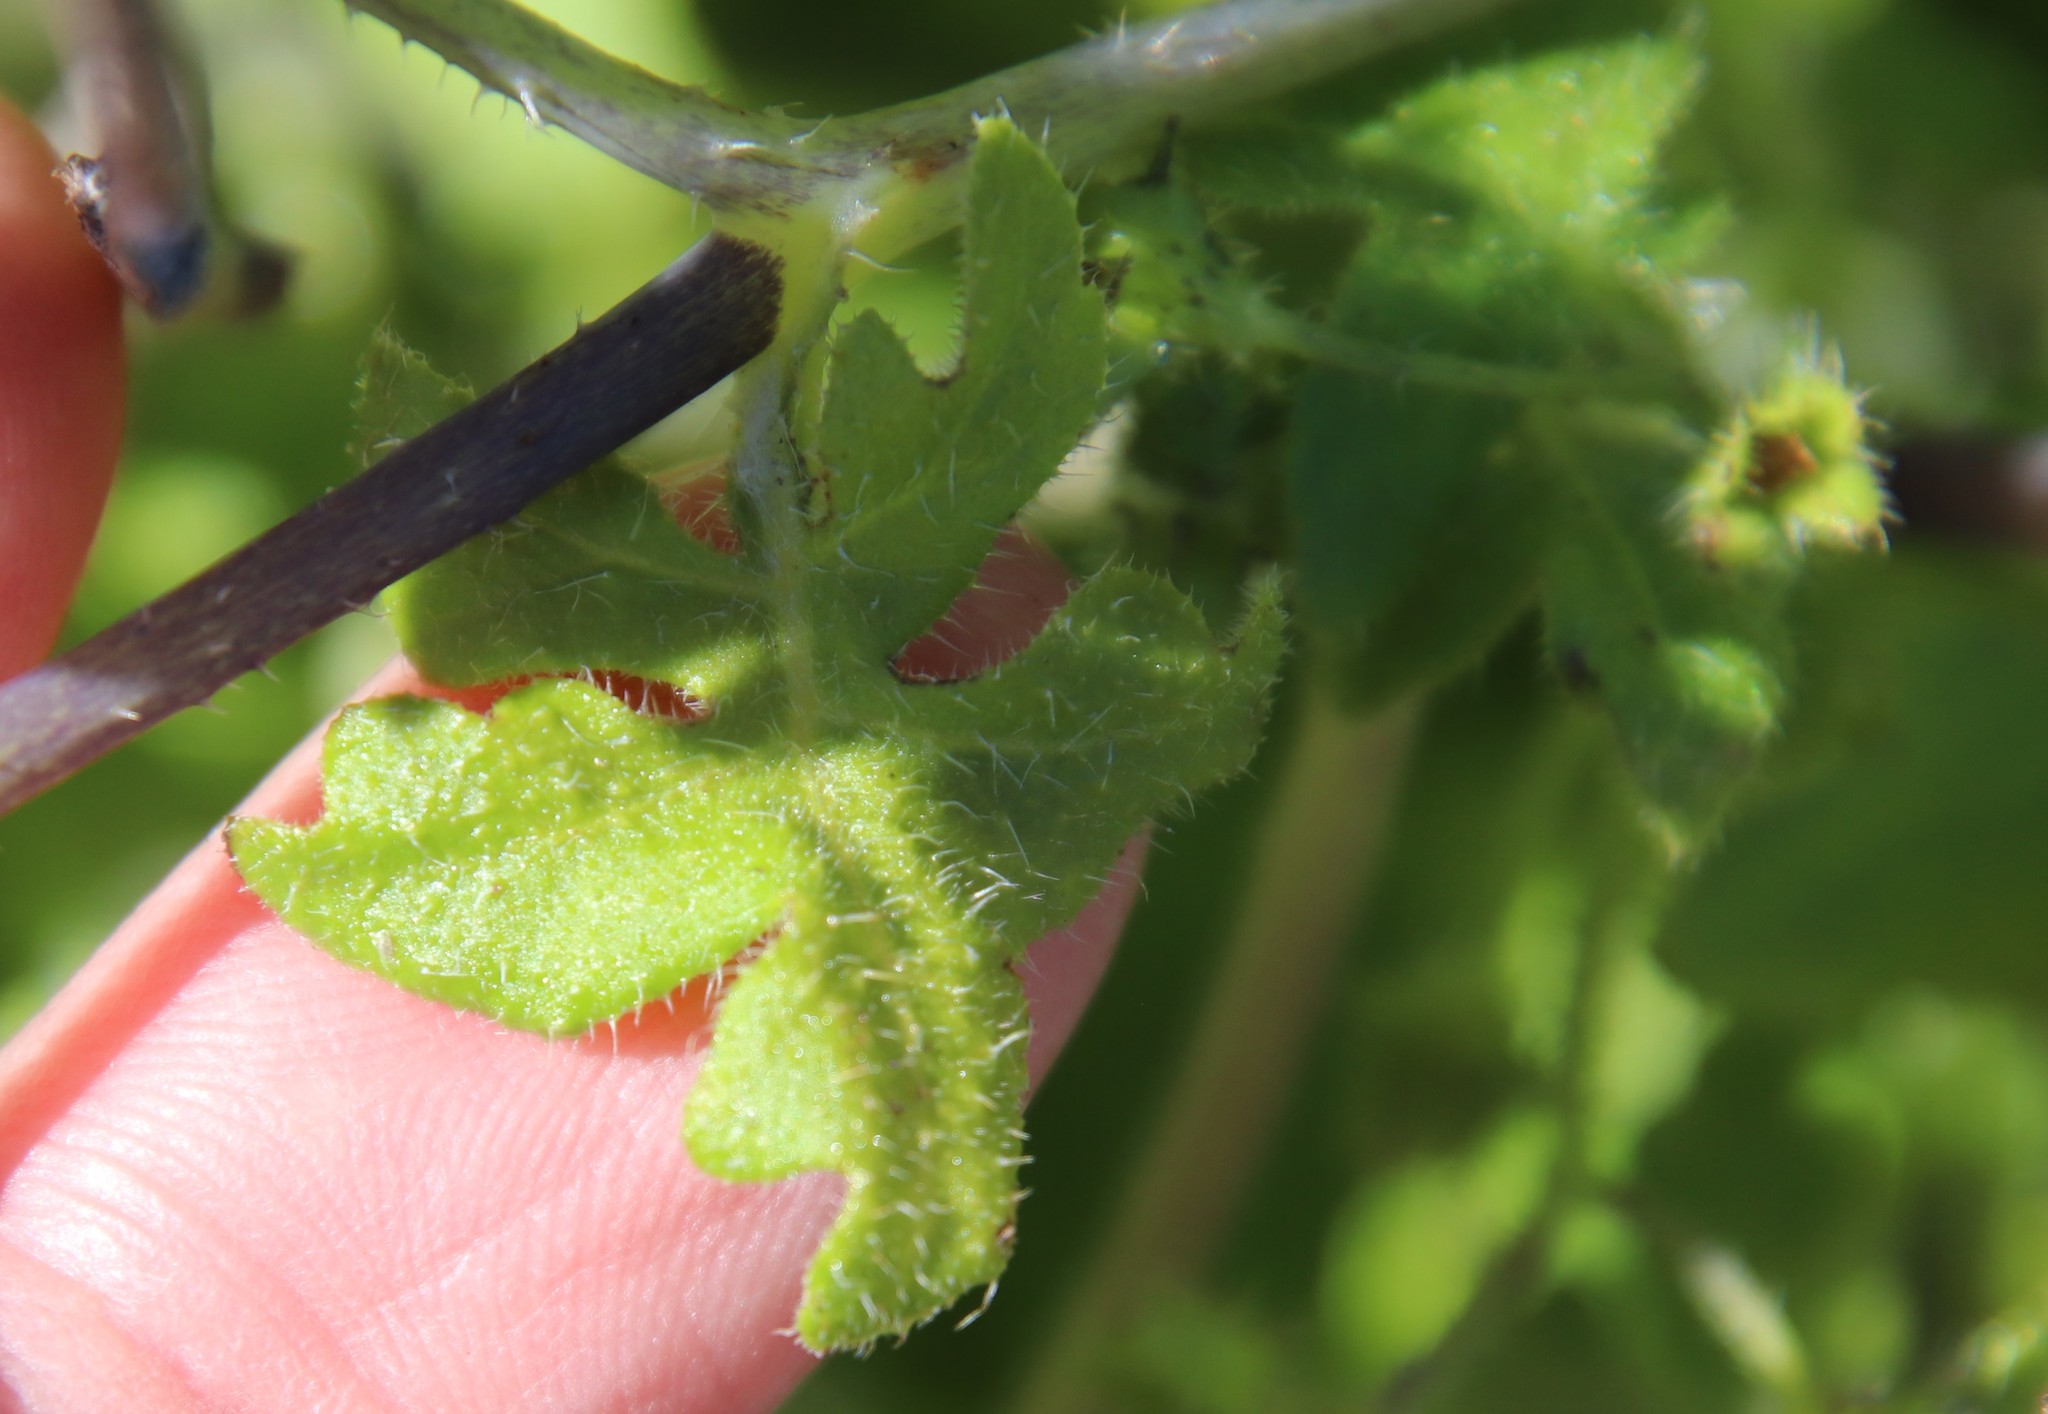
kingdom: Plantae
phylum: Tracheophyta
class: Magnoliopsida
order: Boraginales
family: Hydrophyllaceae
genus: Pholistoma
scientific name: Pholistoma racemosum
